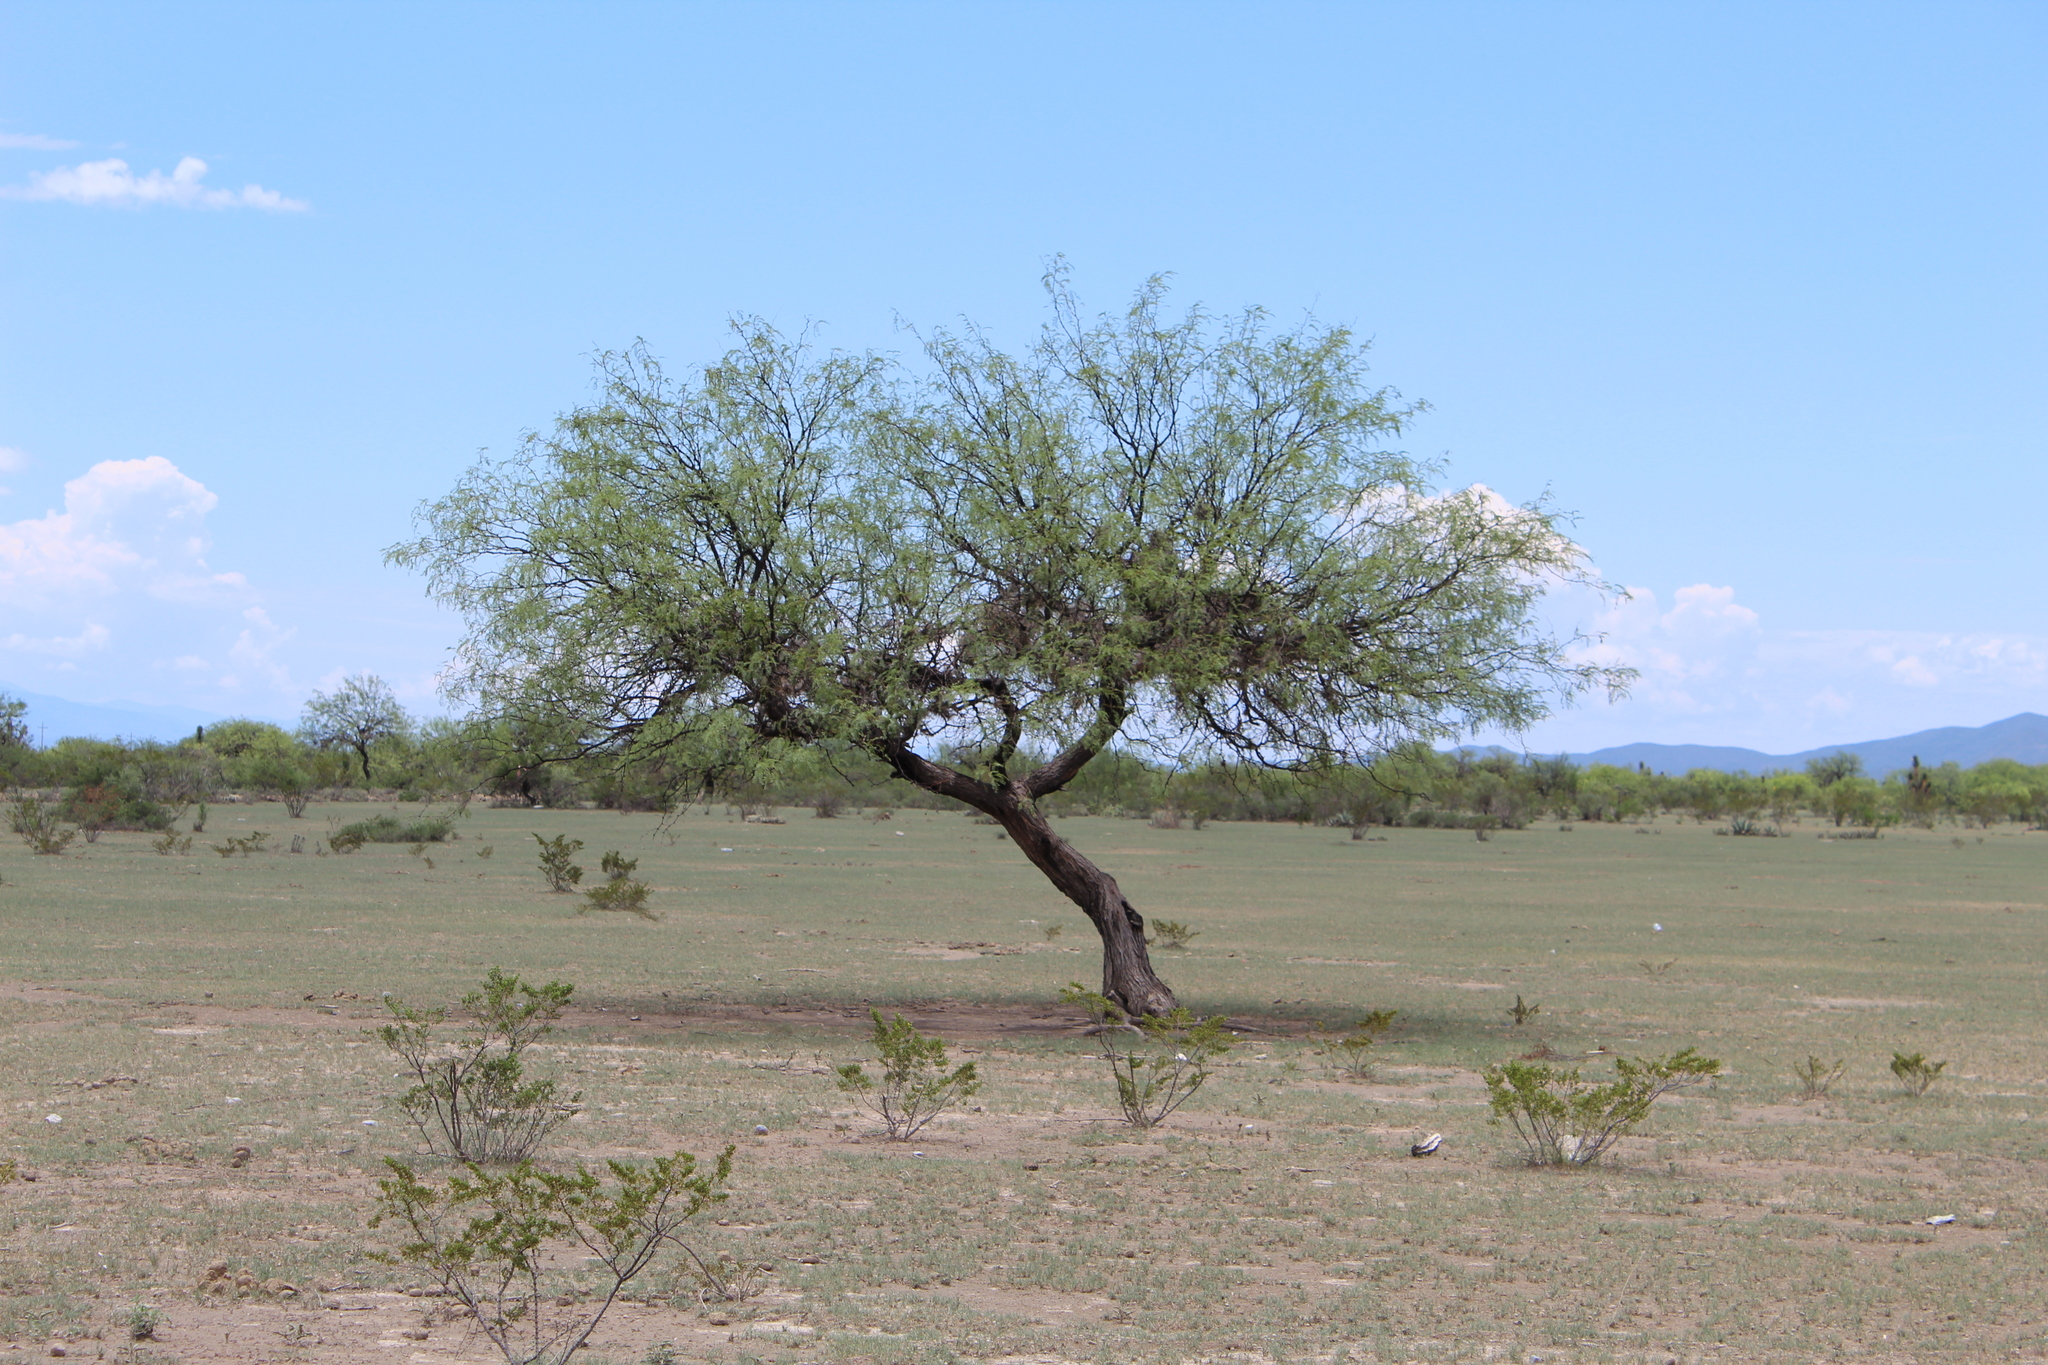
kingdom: Plantae
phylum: Tracheophyta
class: Magnoliopsida
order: Fabales
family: Fabaceae
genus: Prosopis
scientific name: Prosopis laevigata
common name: Smooth mesquite
